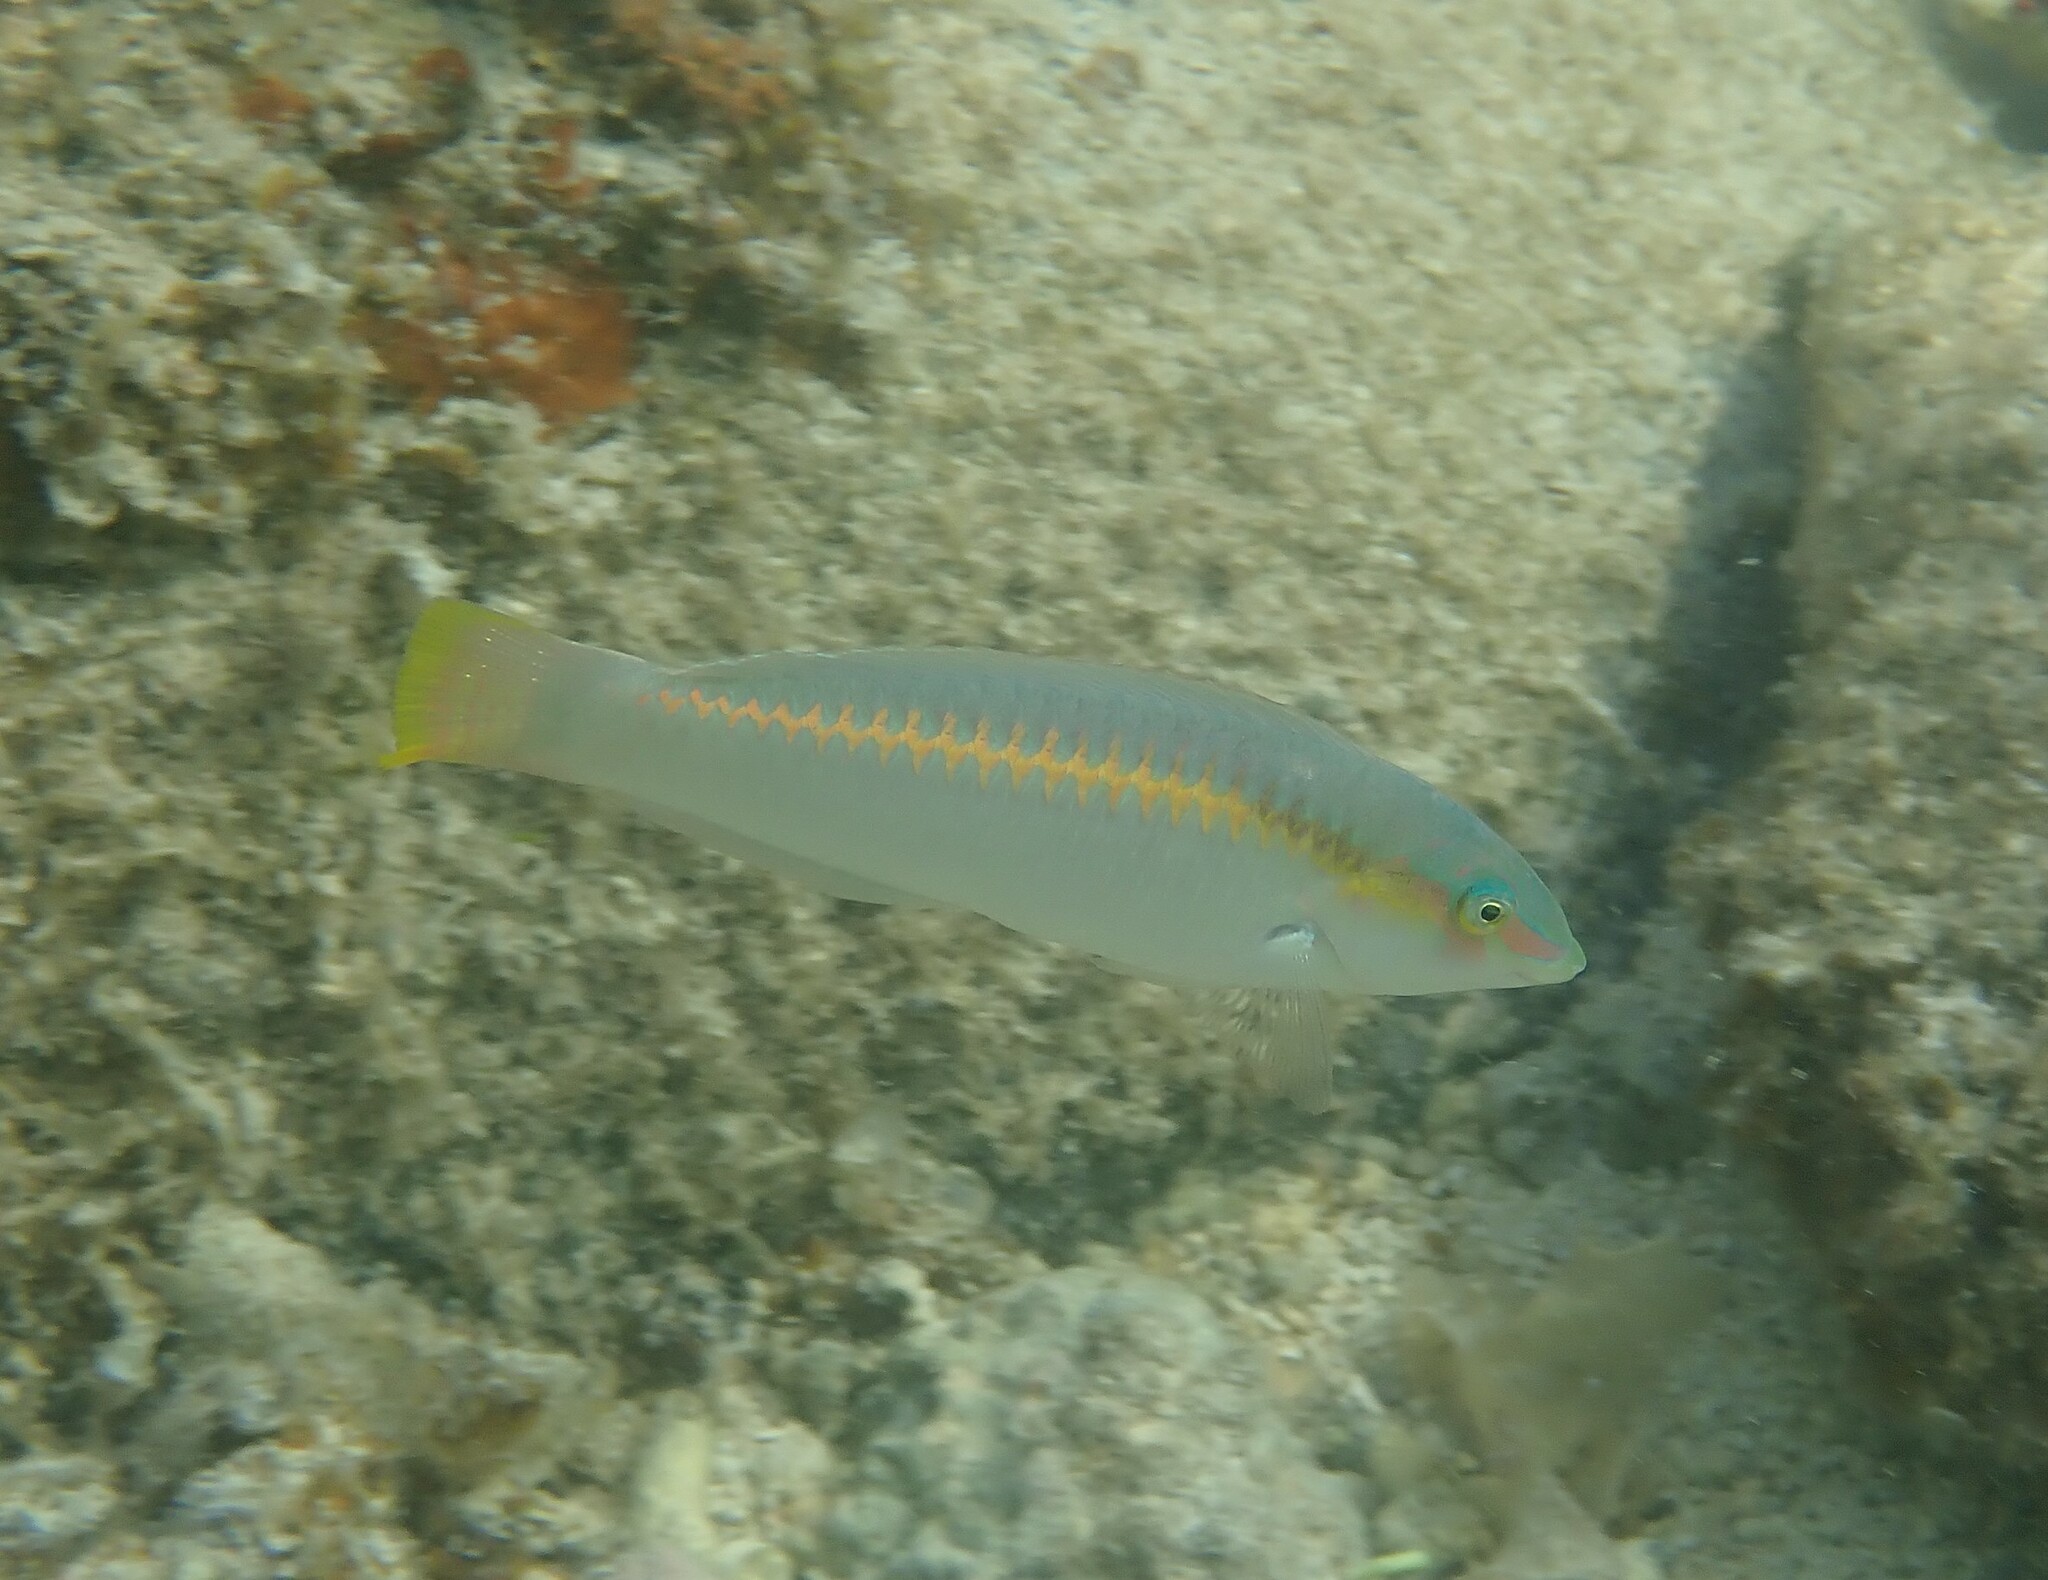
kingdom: Animalia
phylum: Chordata
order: Perciformes
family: Labridae
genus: Halichoeres
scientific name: Halichoeres scapularis
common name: Brownbanded wrasse
